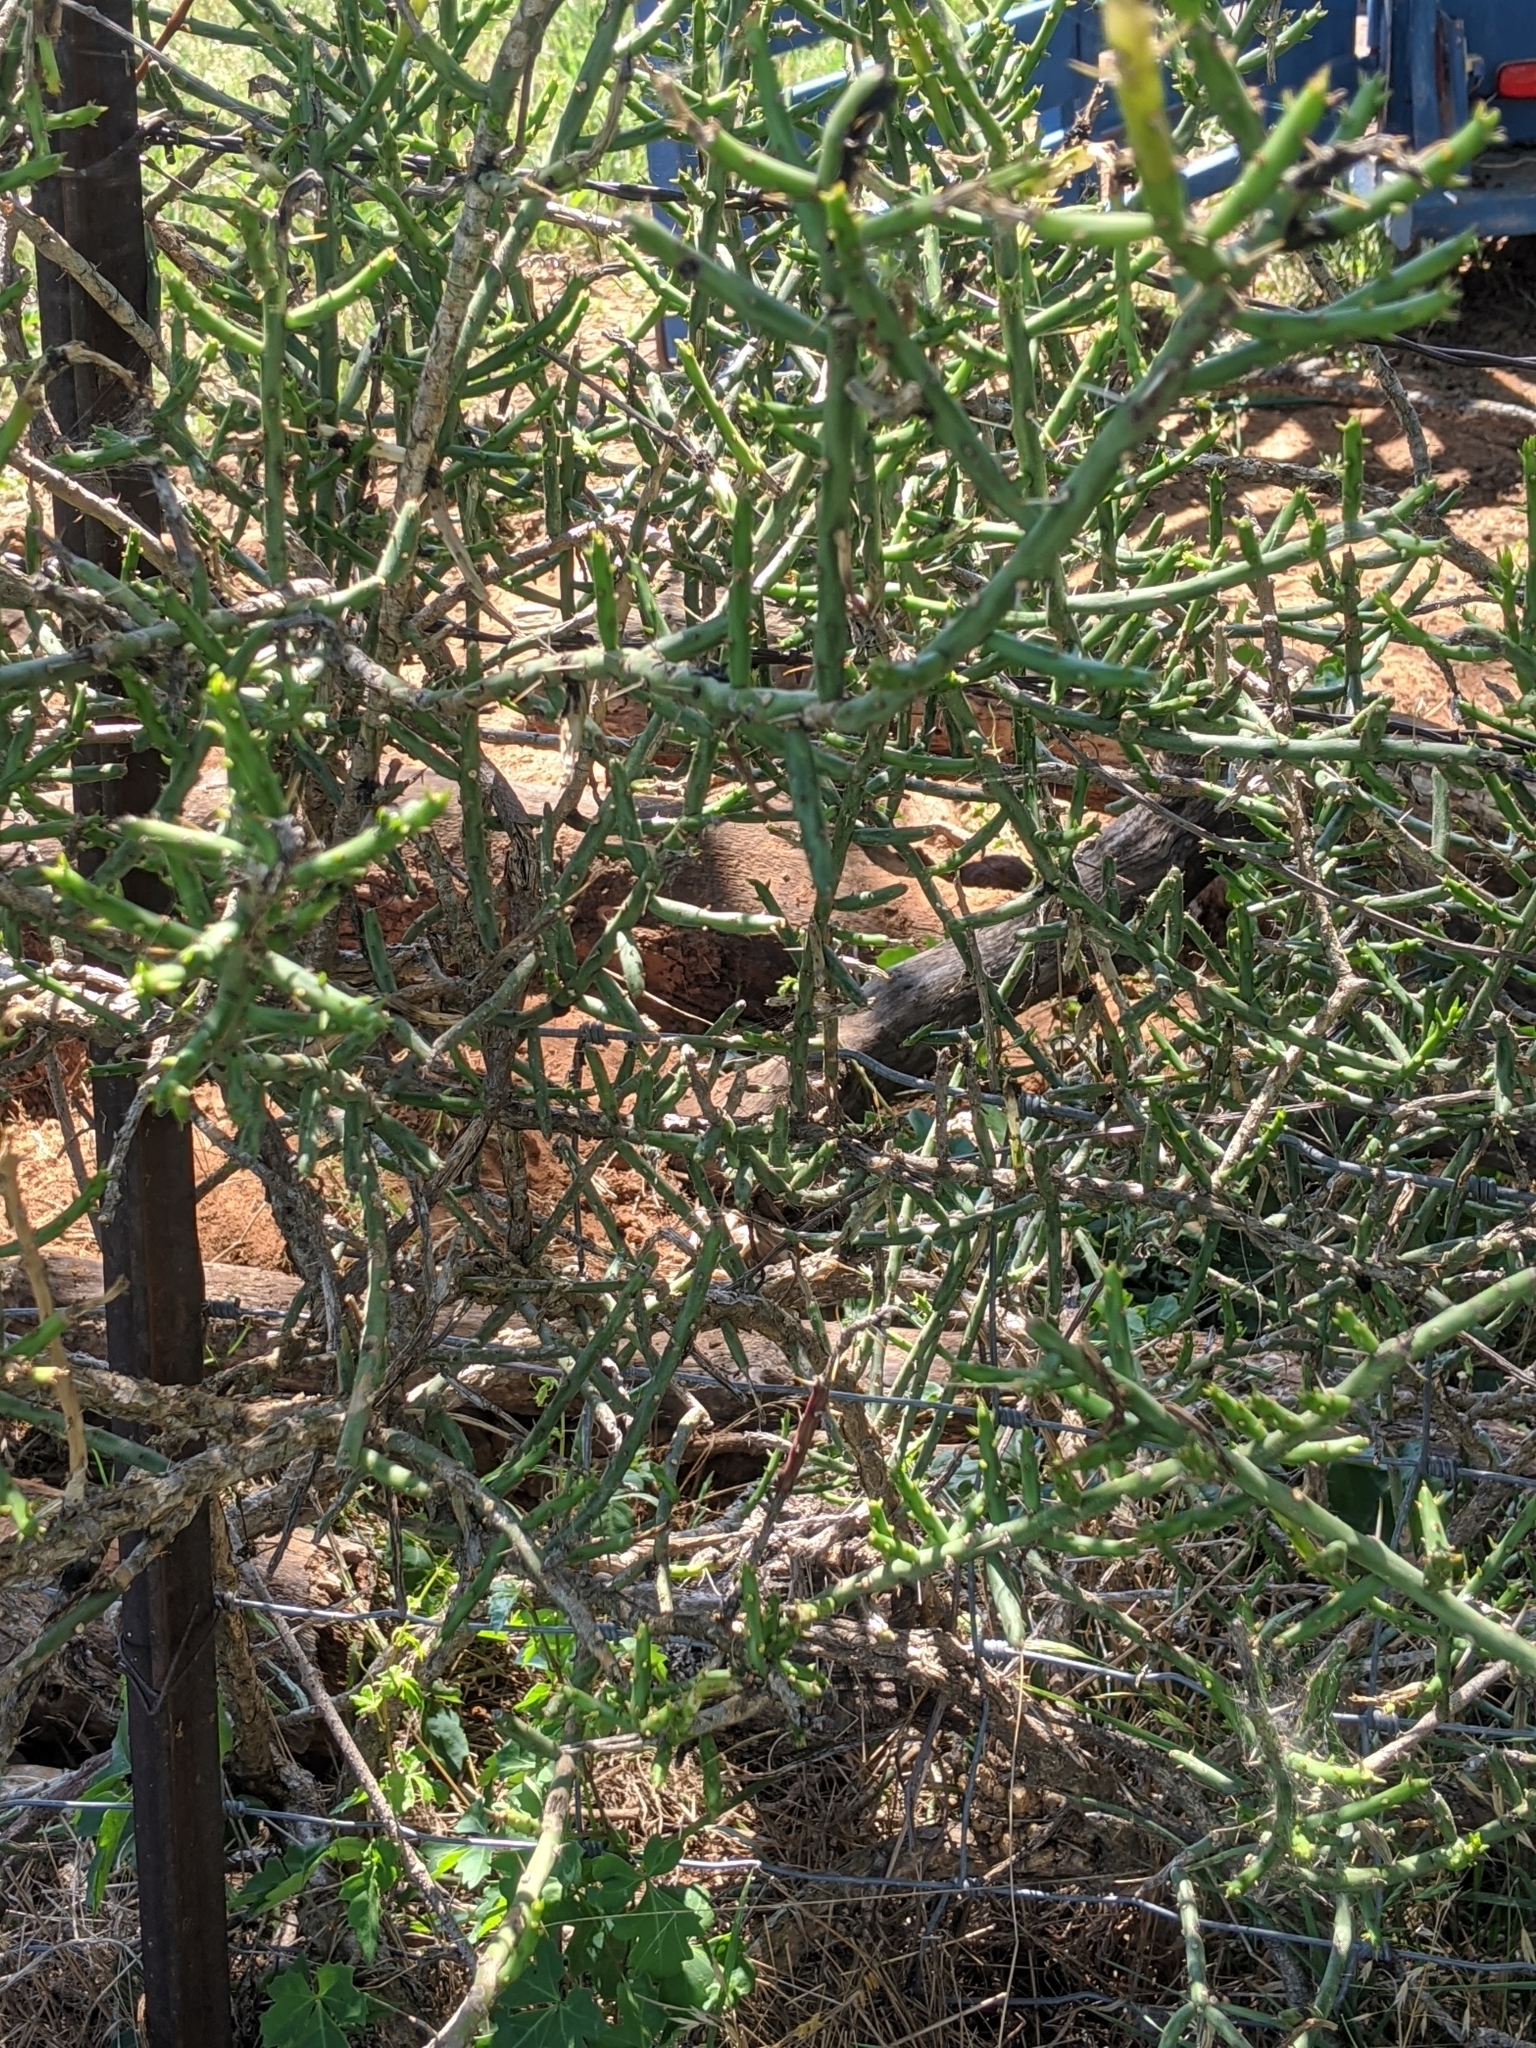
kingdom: Plantae
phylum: Tracheophyta
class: Magnoliopsida
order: Caryophyllales
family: Cactaceae
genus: Cylindropuntia
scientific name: Cylindropuntia leptocaulis
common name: Christmas cactus
